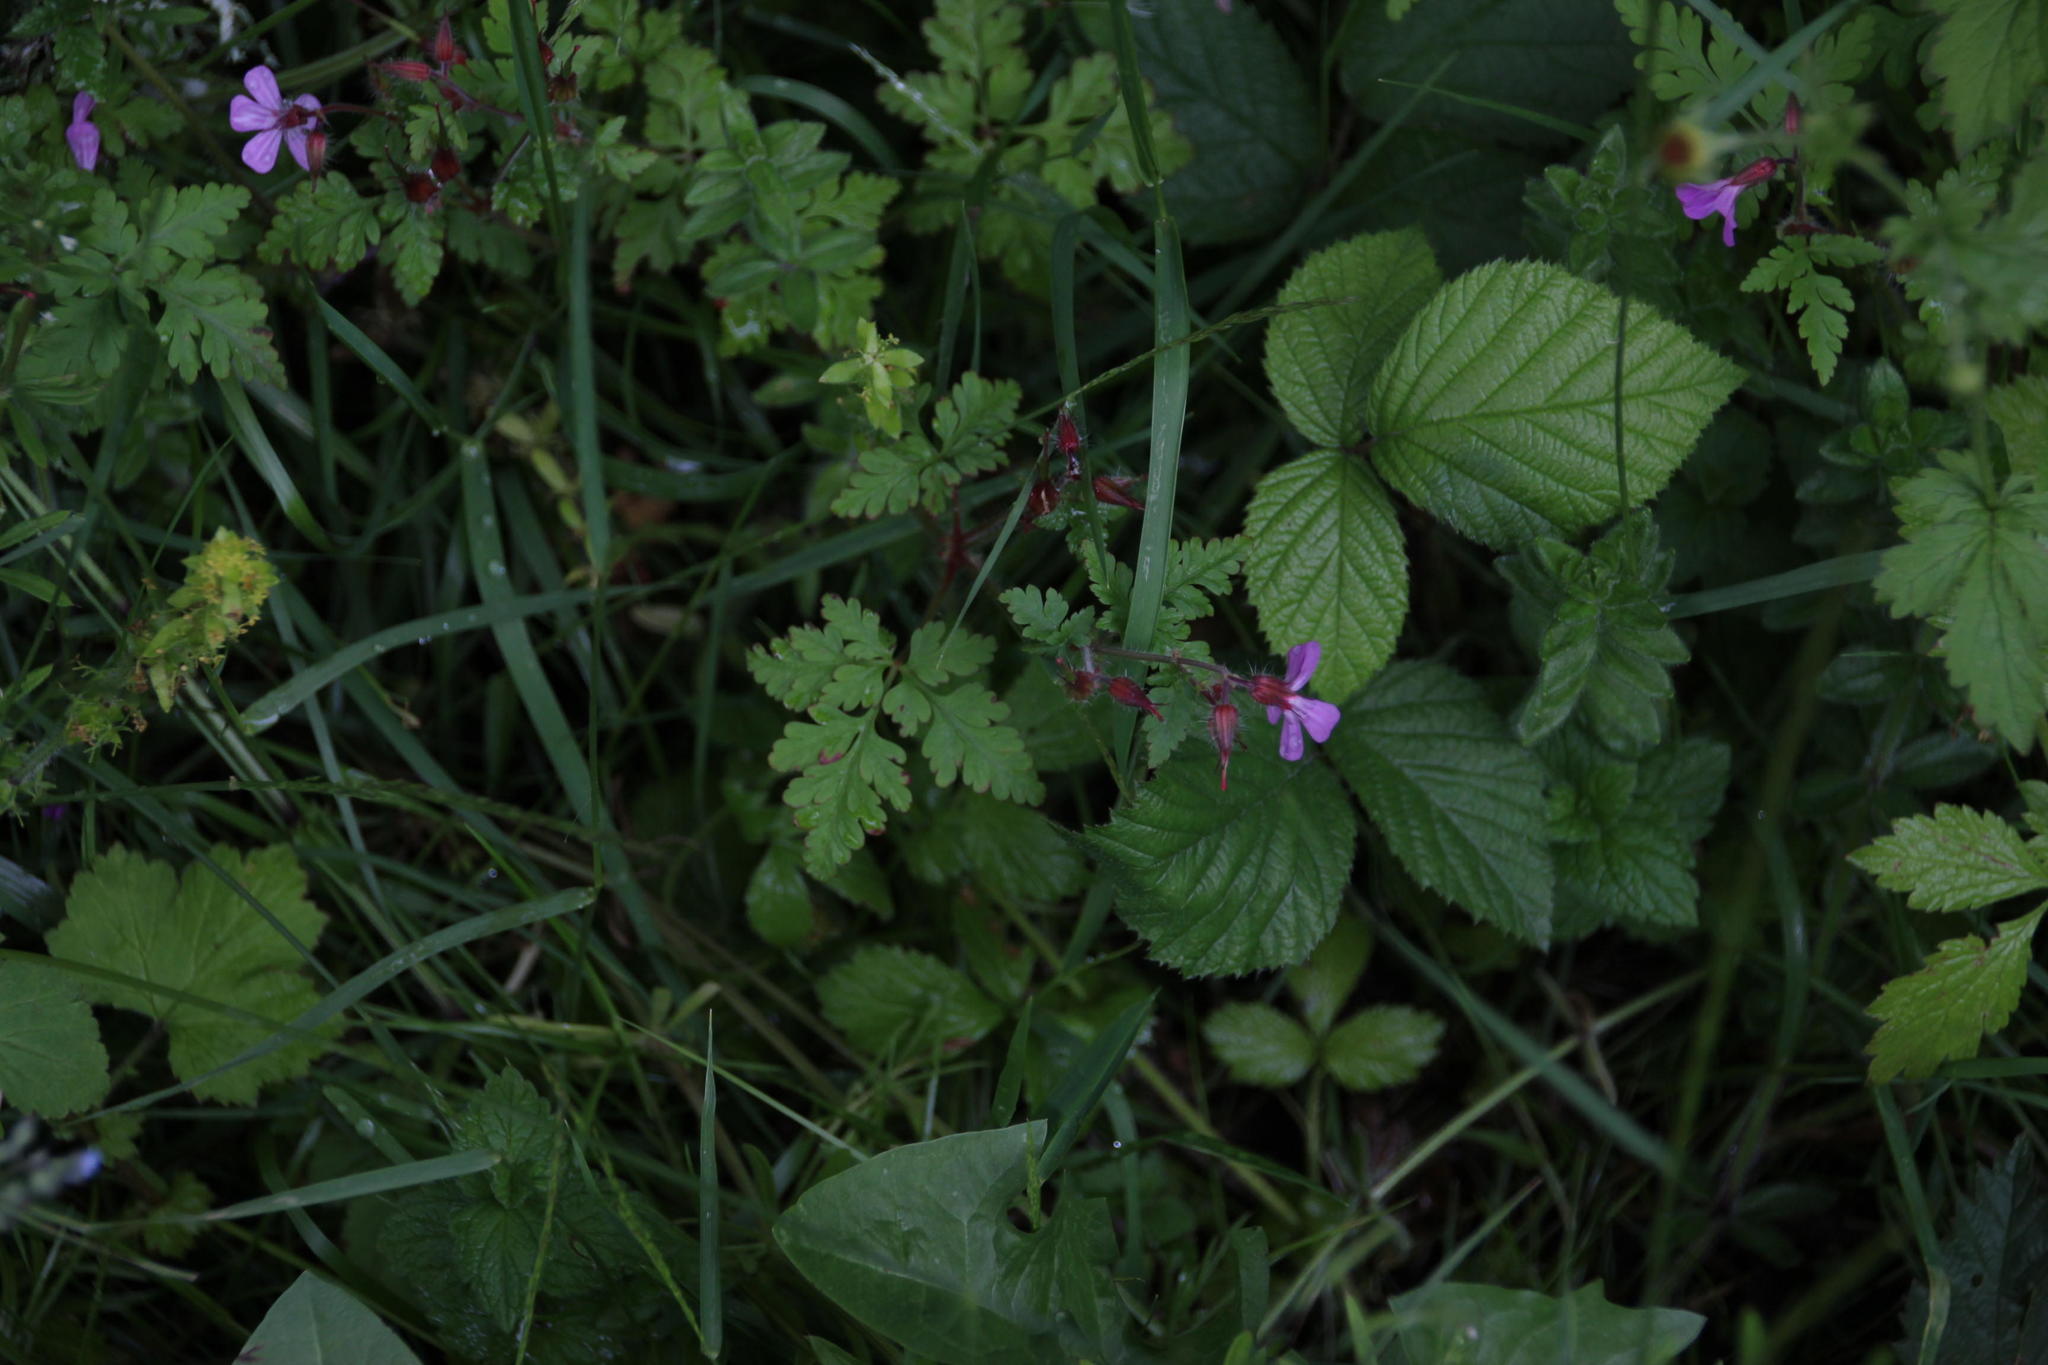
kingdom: Plantae
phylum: Tracheophyta
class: Magnoliopsida
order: Geraniales
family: Geraniaceae
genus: Geranium
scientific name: Geranium robertianum
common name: Herb-robert
